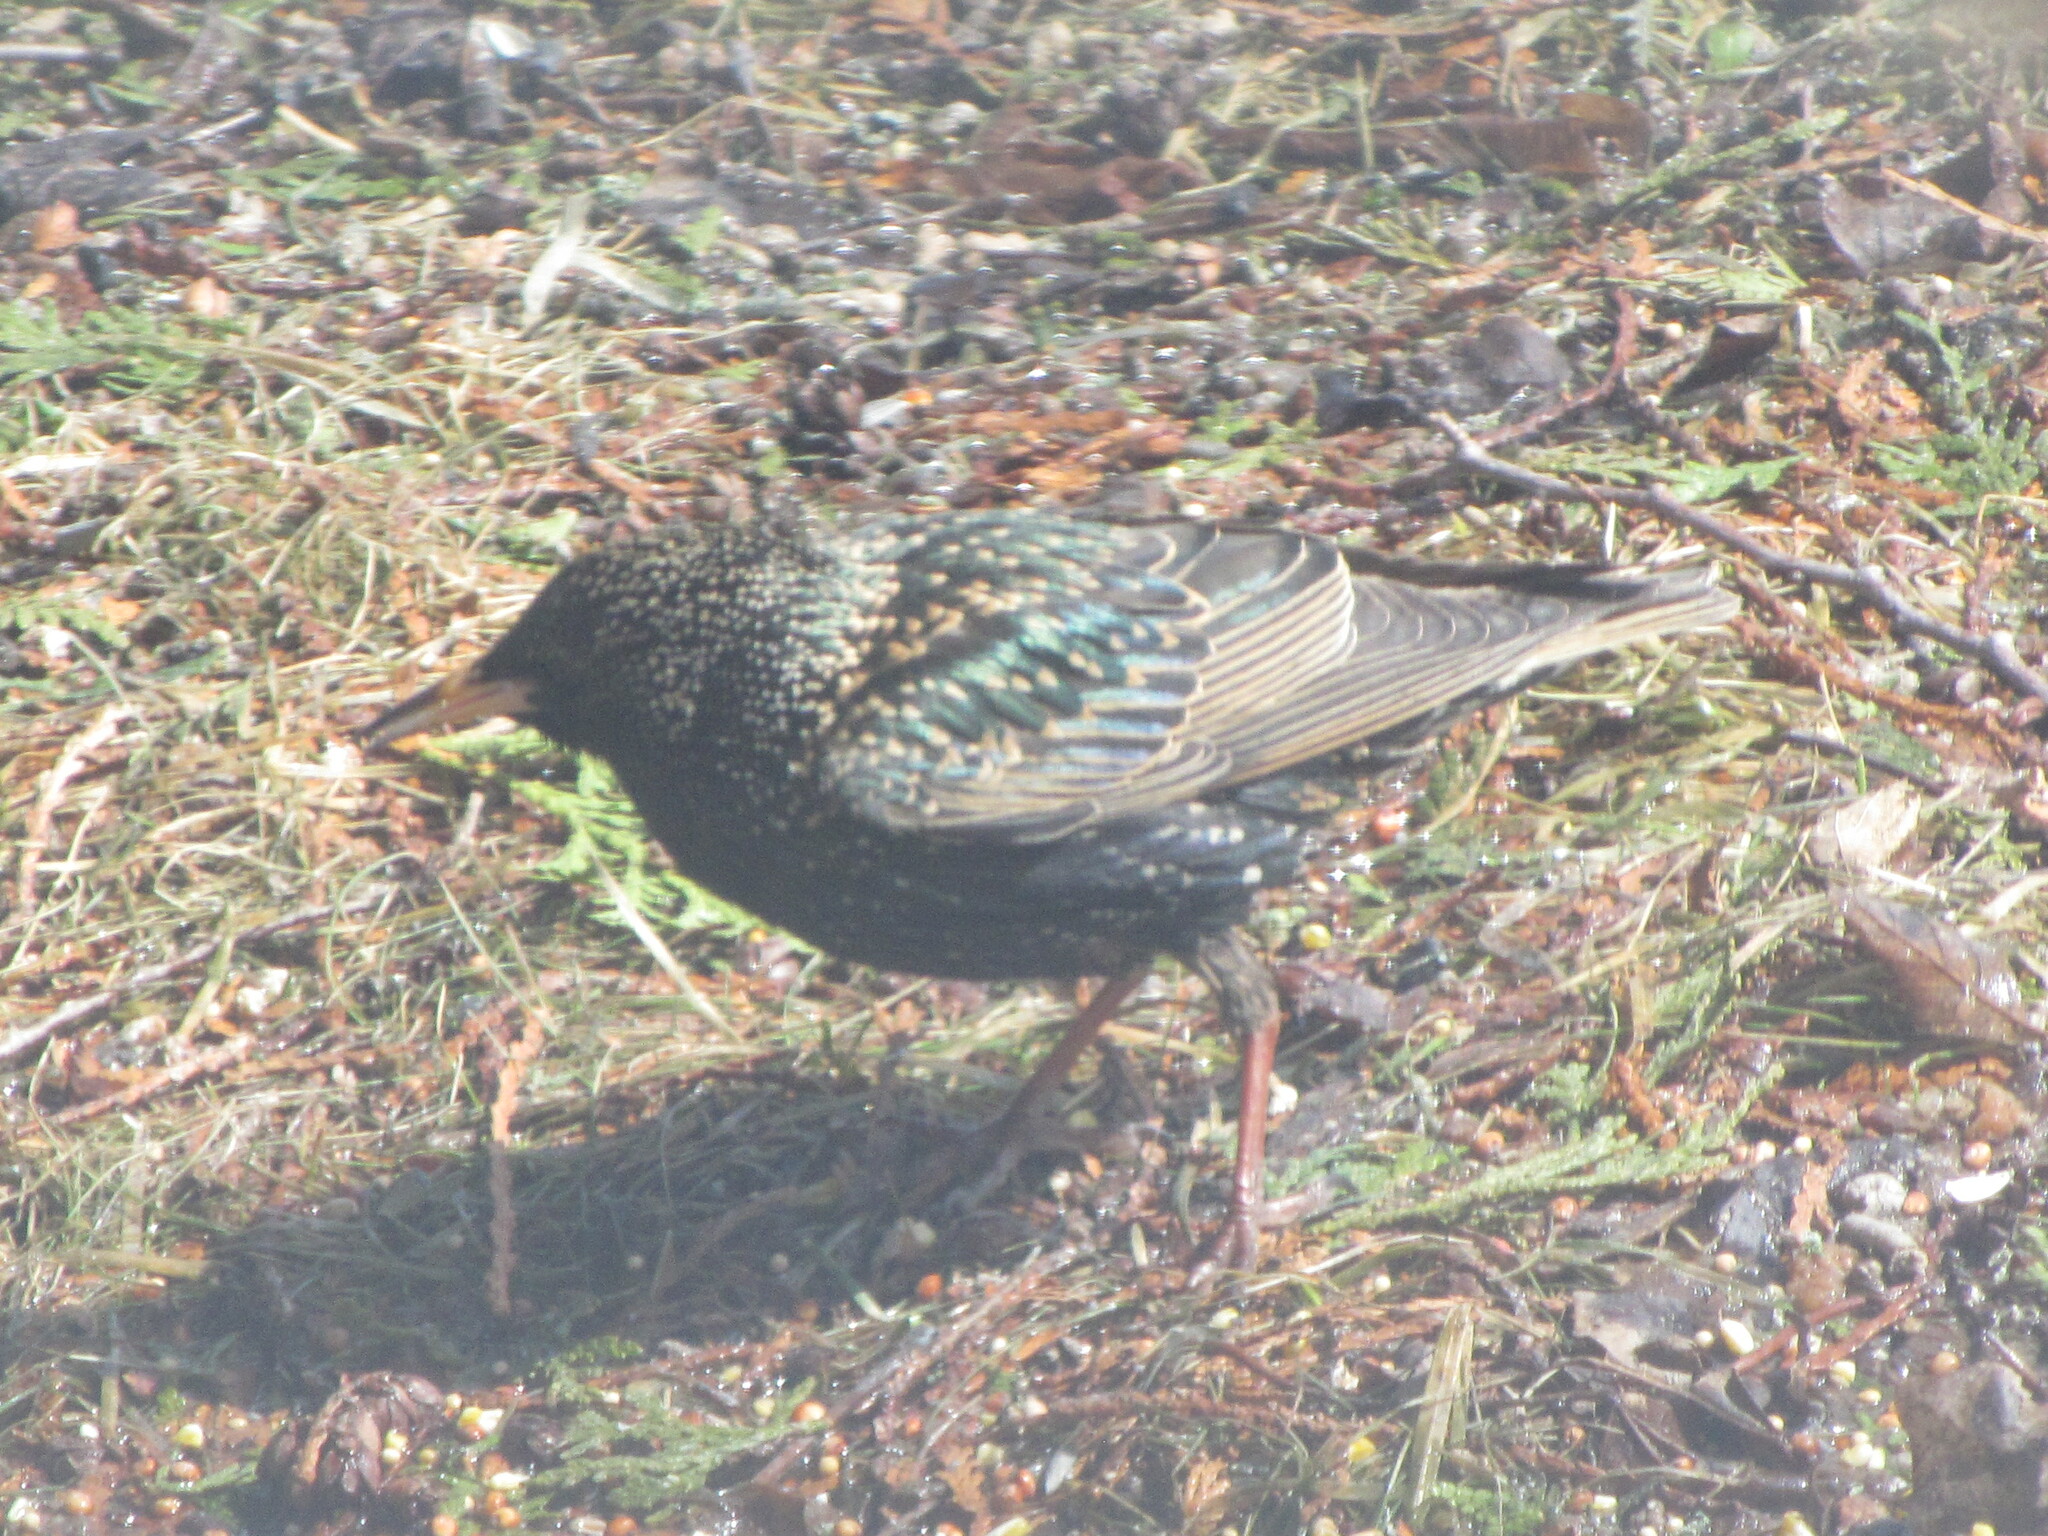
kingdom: Animalia
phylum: Chordata
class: Aves
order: Passeriformes
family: Sturnidae
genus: Sturnus
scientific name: Sturnus vulgaris
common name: Common starling
